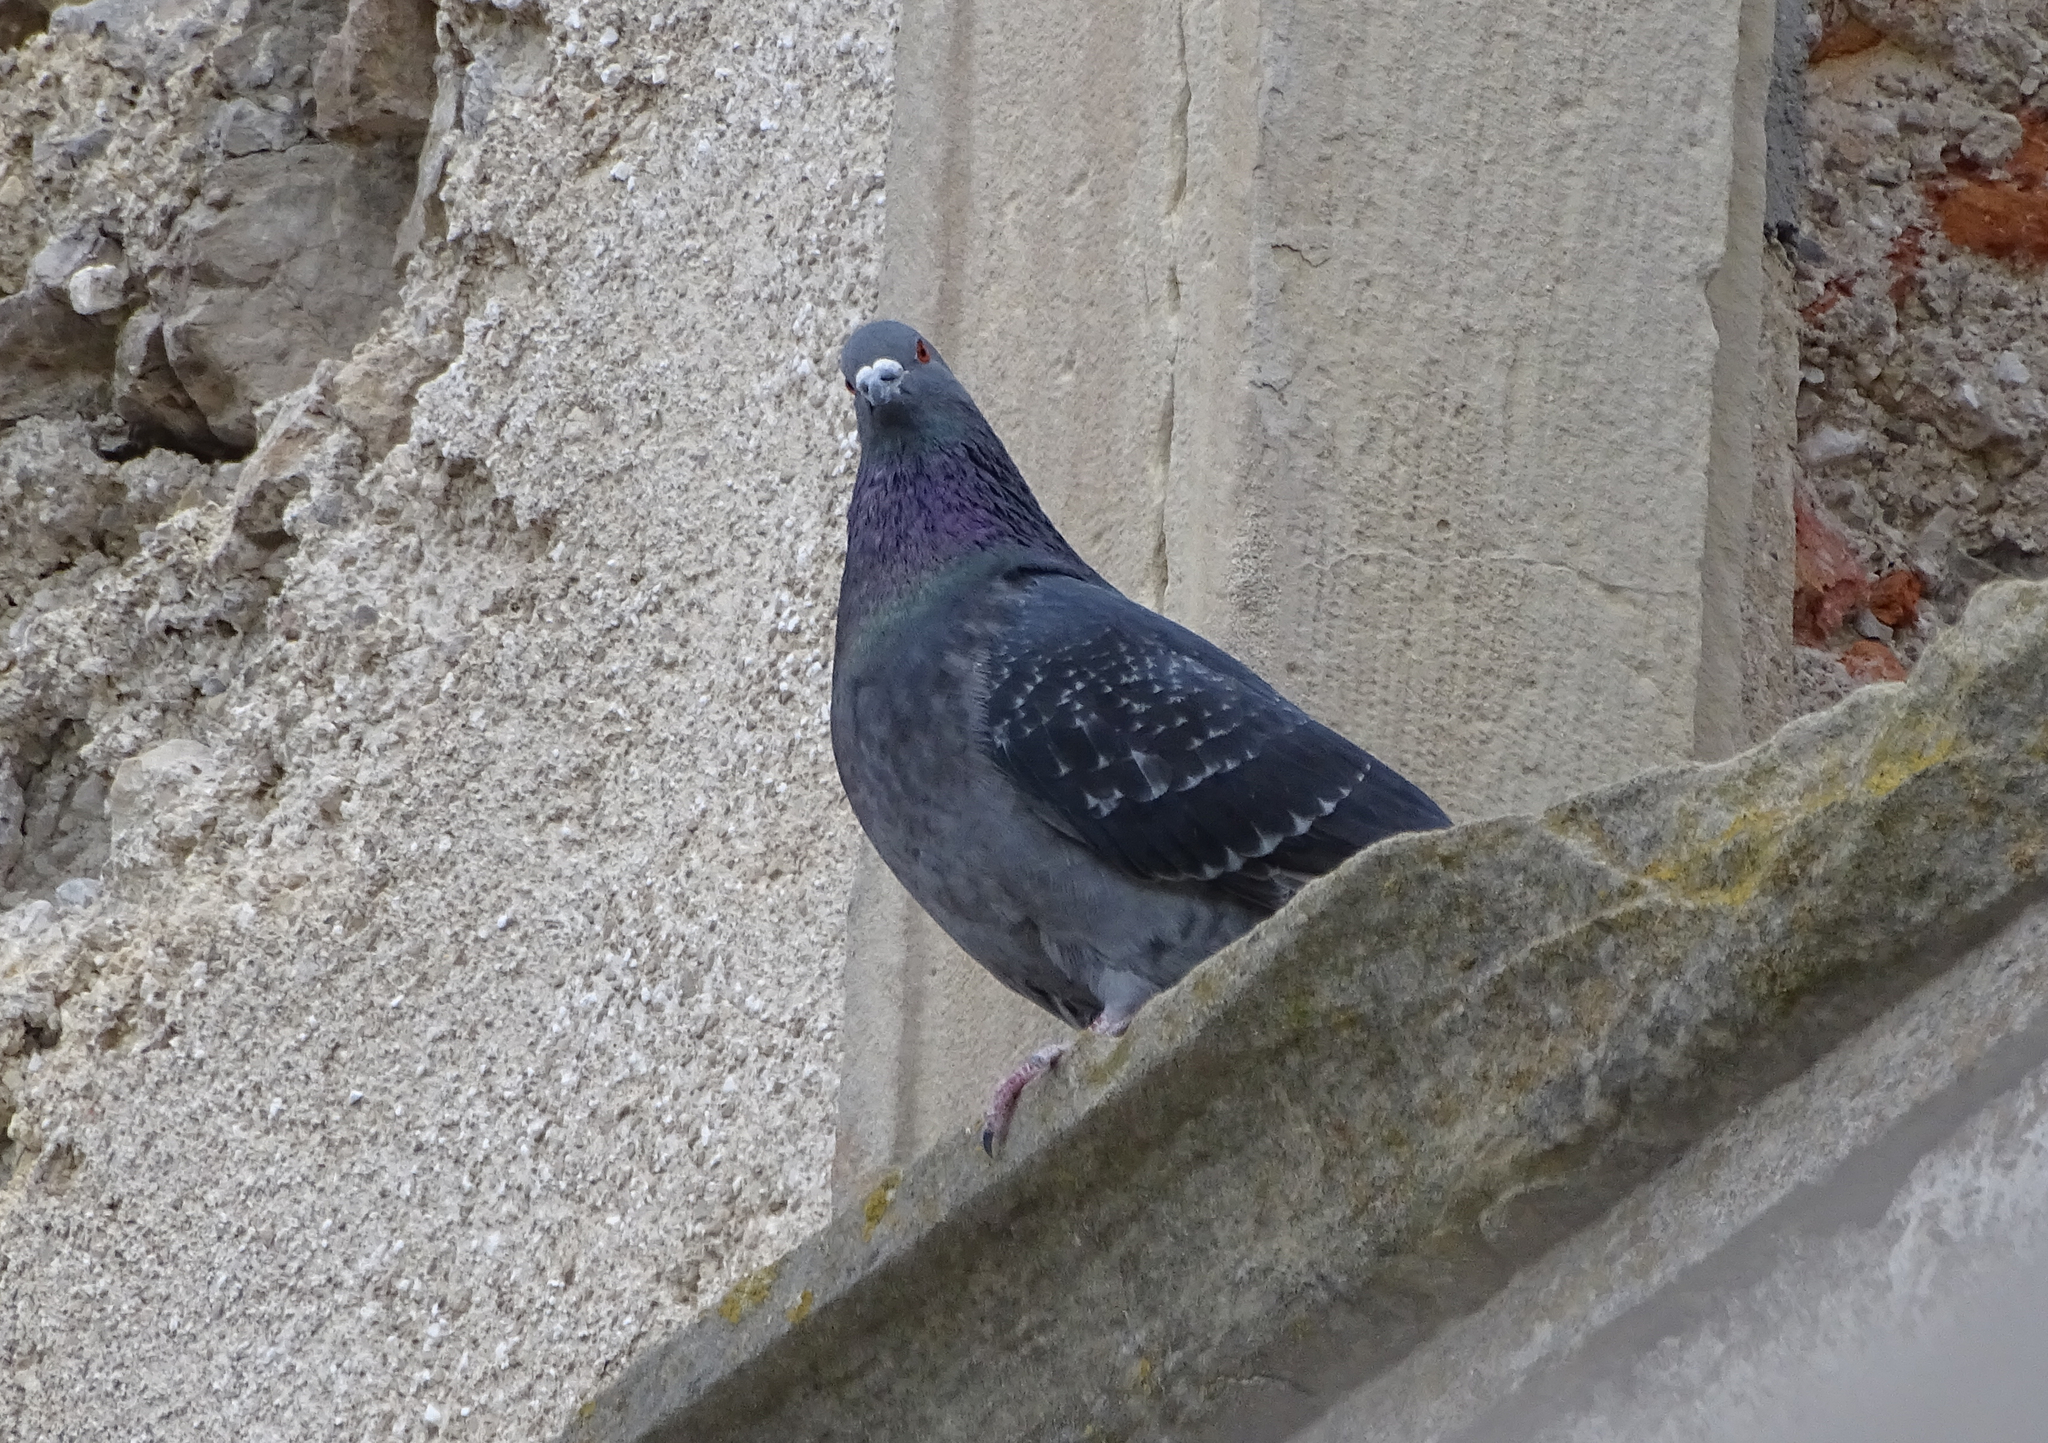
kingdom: Animalia
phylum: Chordata
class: Aves
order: Columbiformes
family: Columbidae
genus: Columba
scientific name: Columba livia
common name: Rock pigeon
